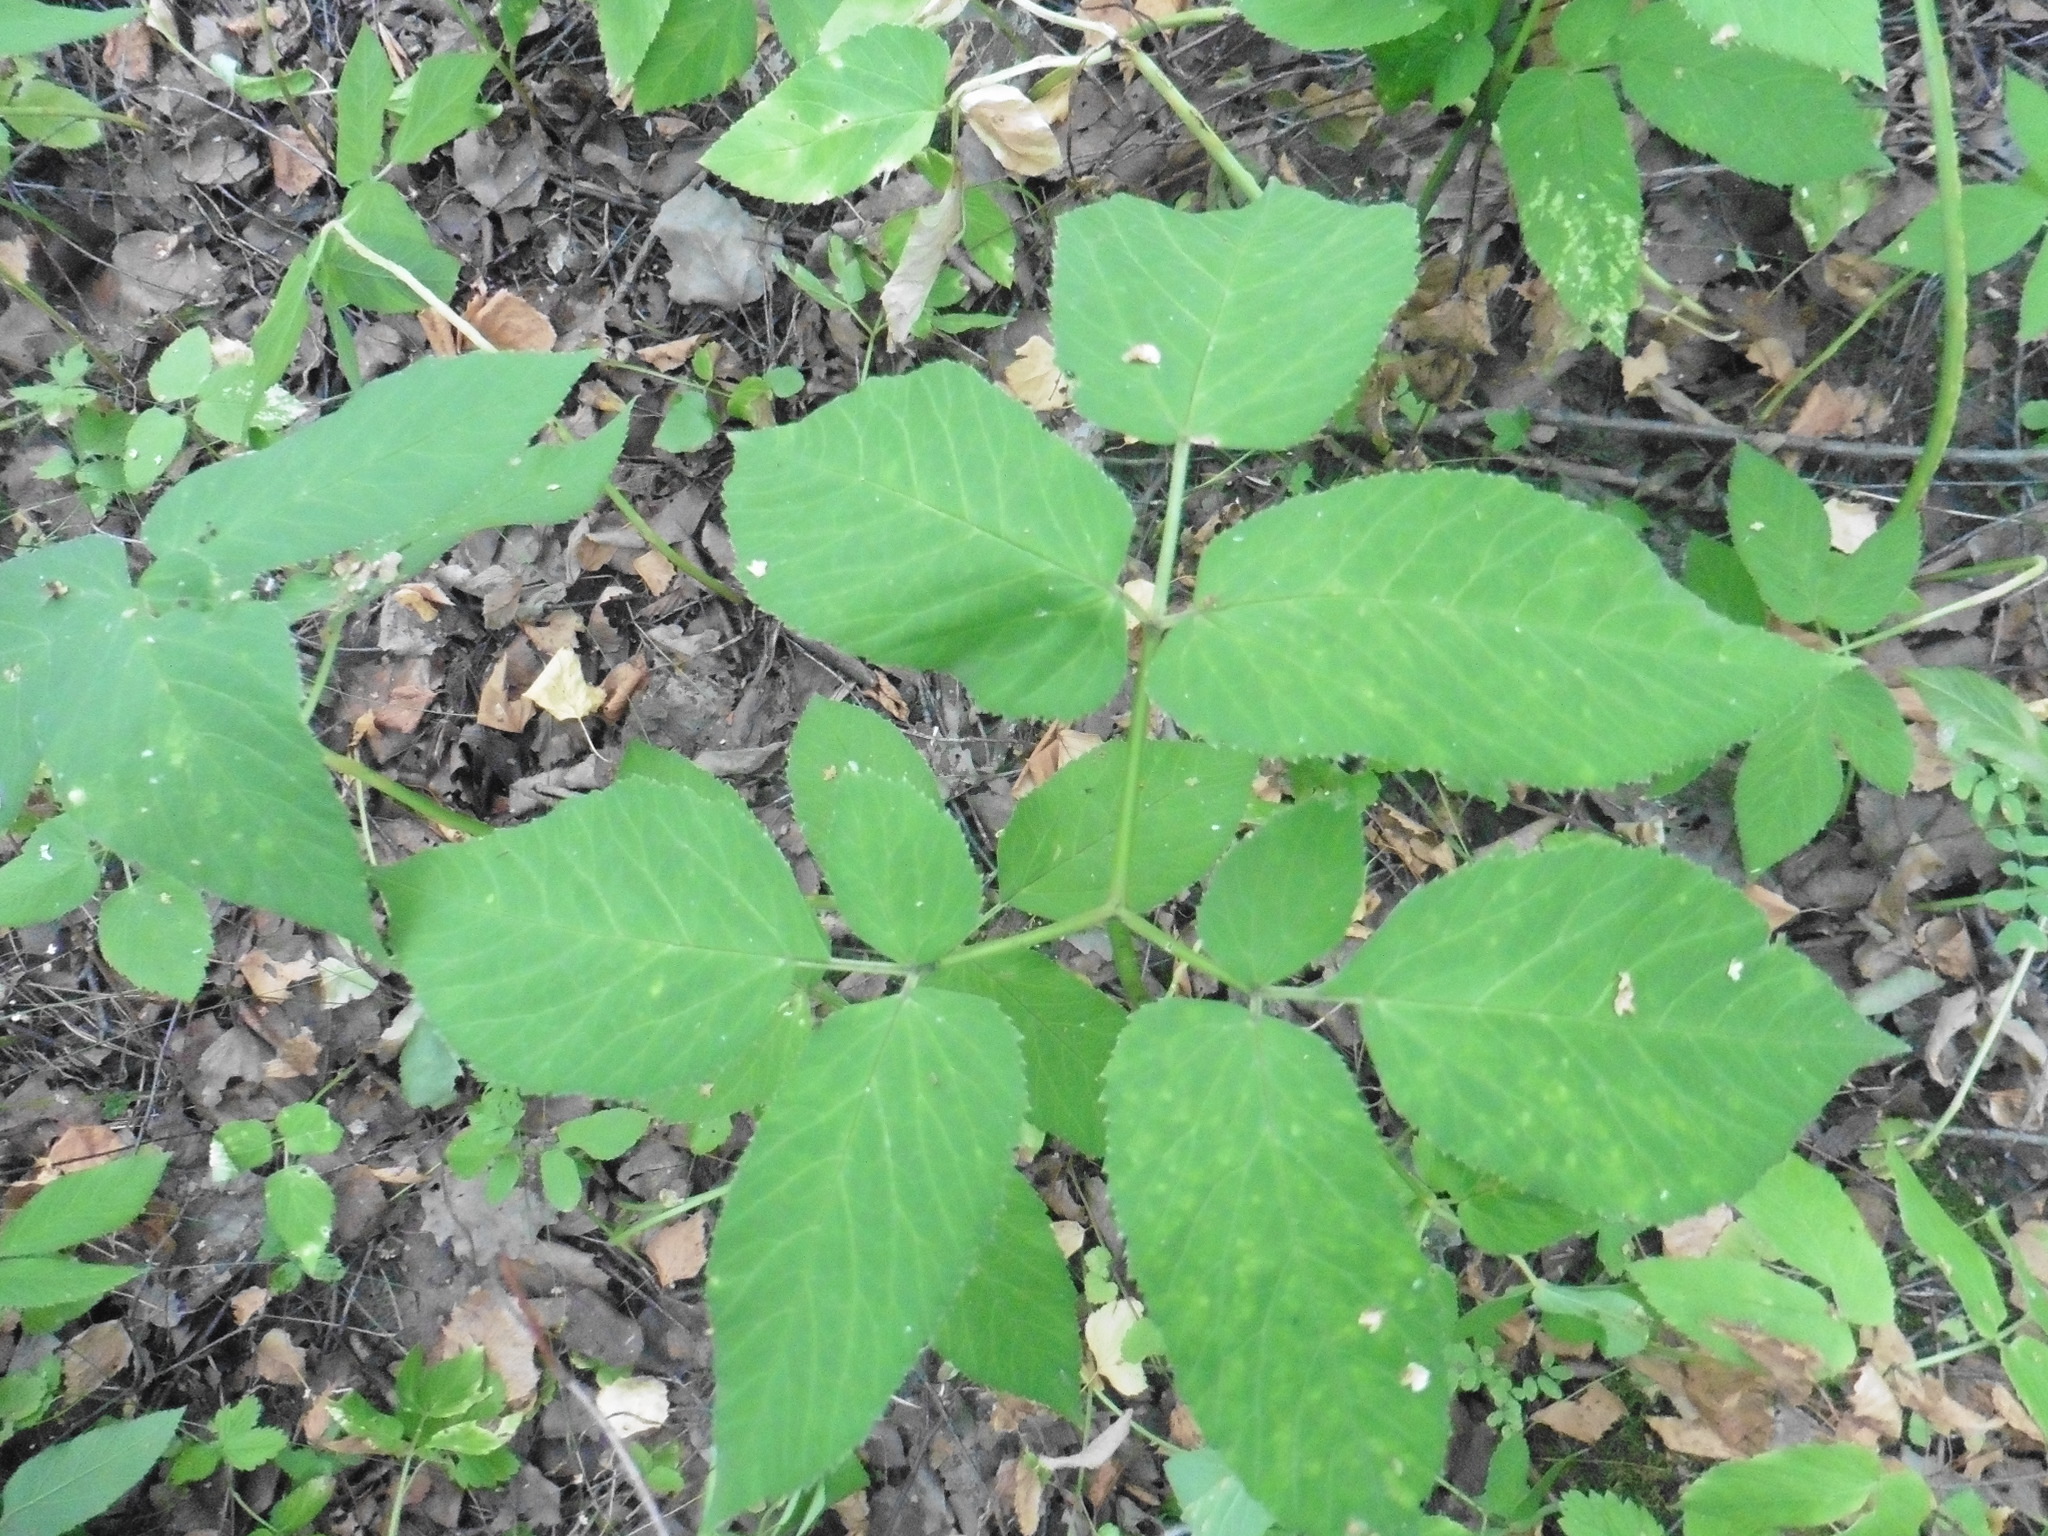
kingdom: Plantae
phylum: Tracheophyta
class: Magnoliopsida
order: Apiales
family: Apiaceae
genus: Aegopodium
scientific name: Aegopodium podagraria
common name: Ground-elder
